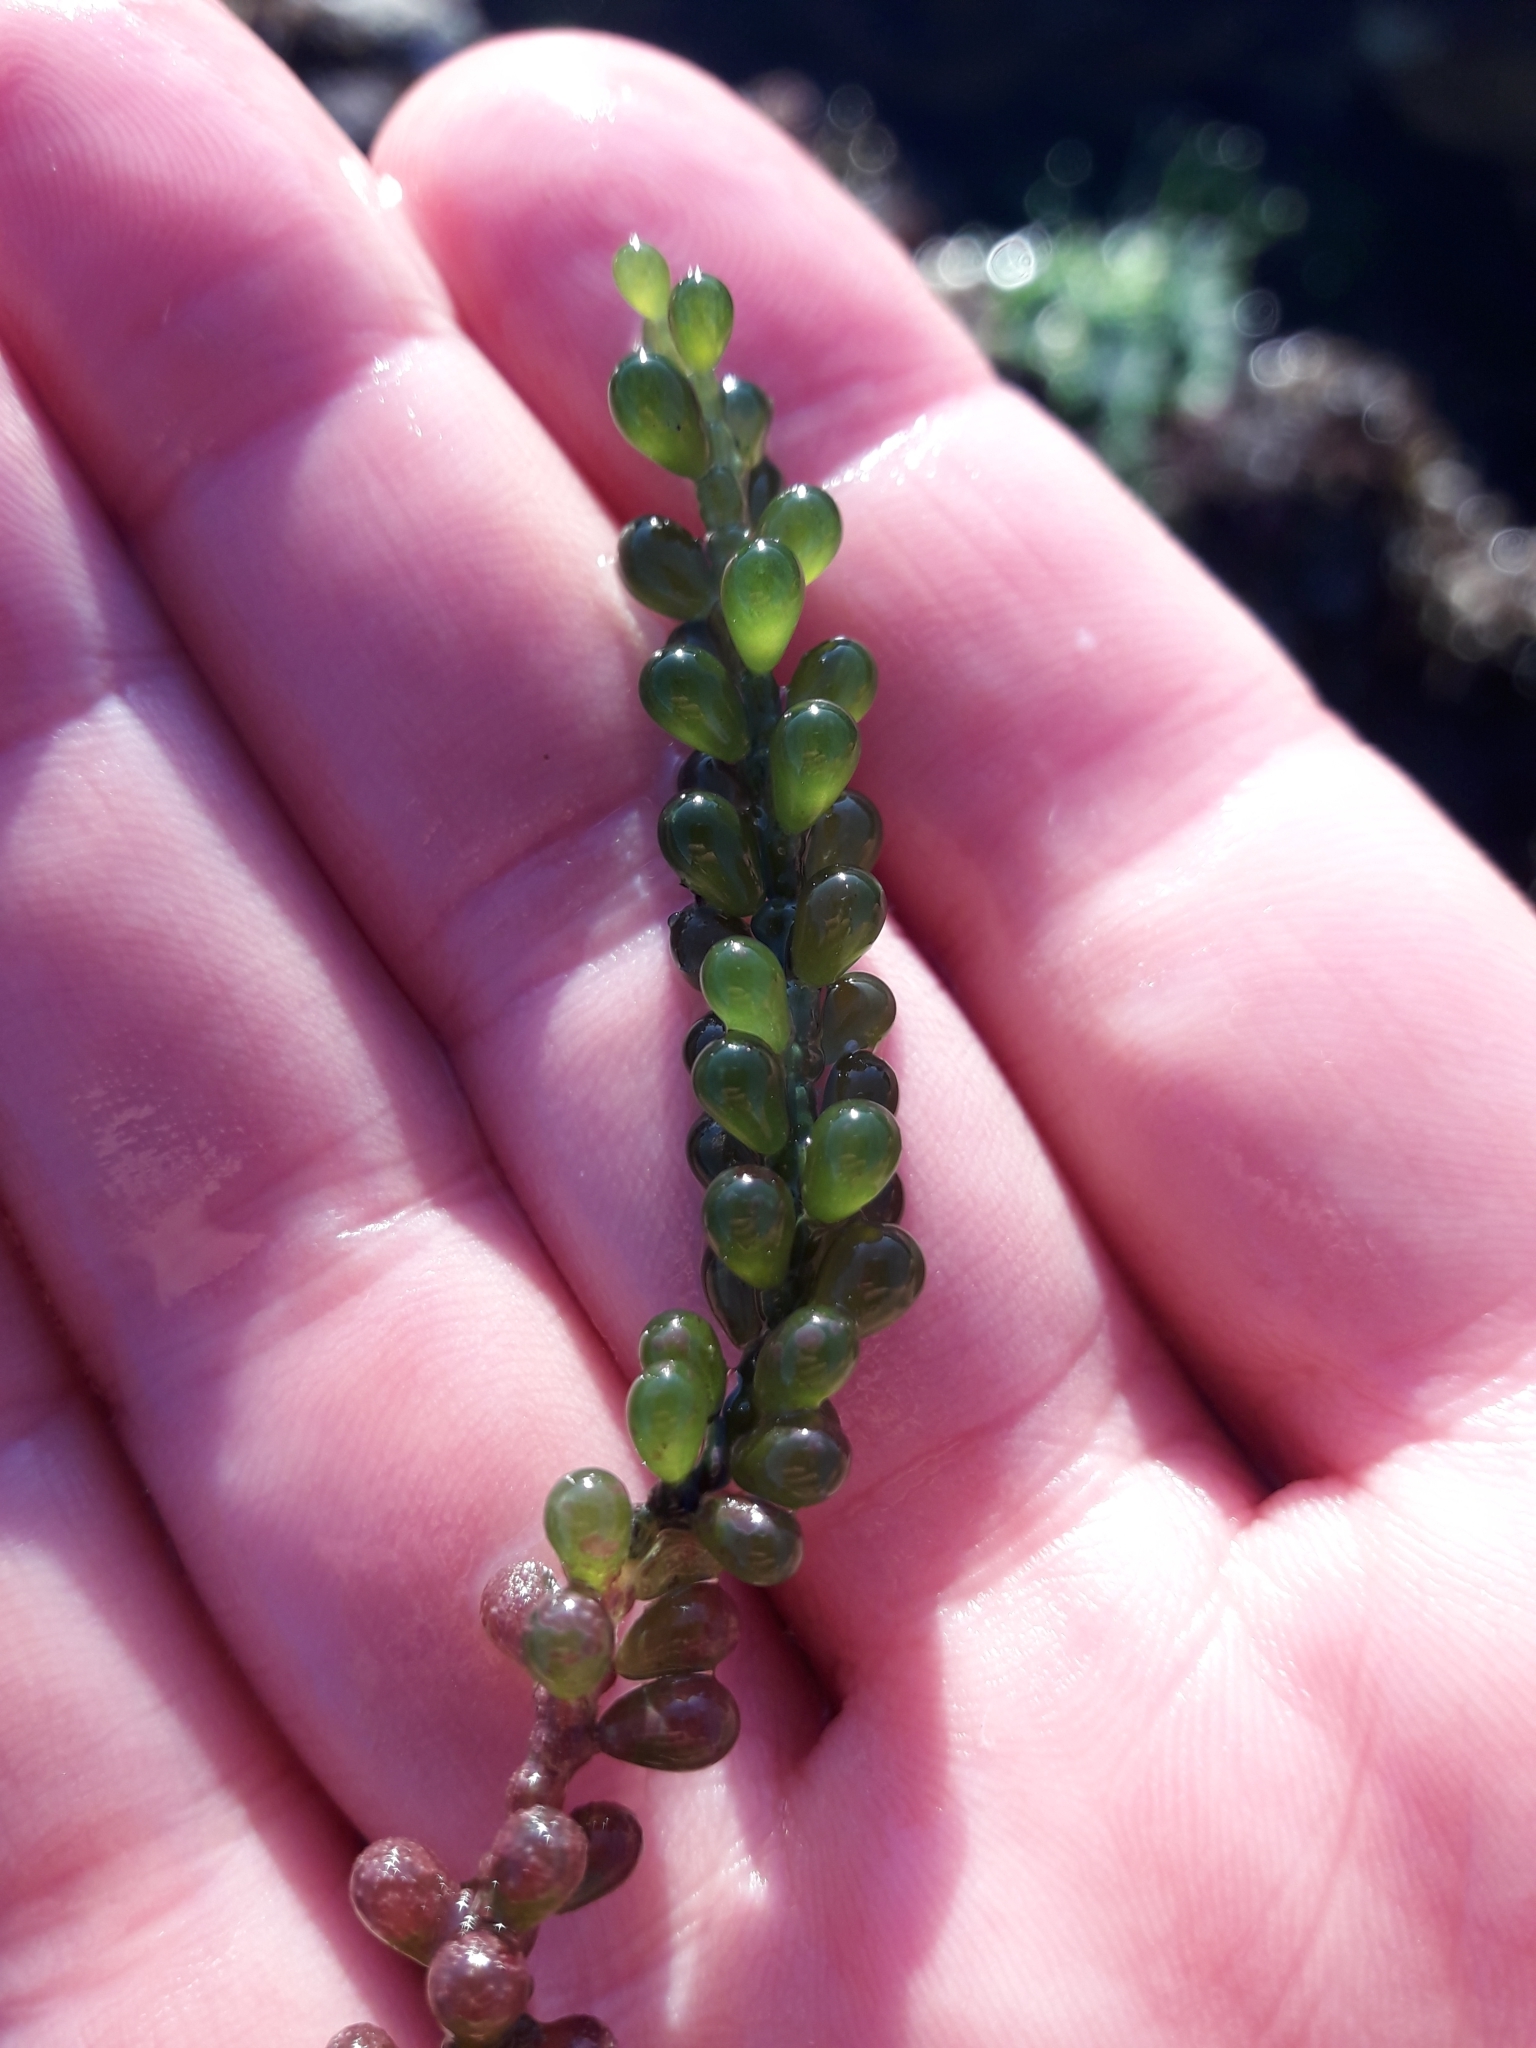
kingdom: Plantae
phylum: Chlorophyta
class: Ulvophyceae
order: Bryopsidales
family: Caulerpaceae
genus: Caulerpa
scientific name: Caulerpa geminata
